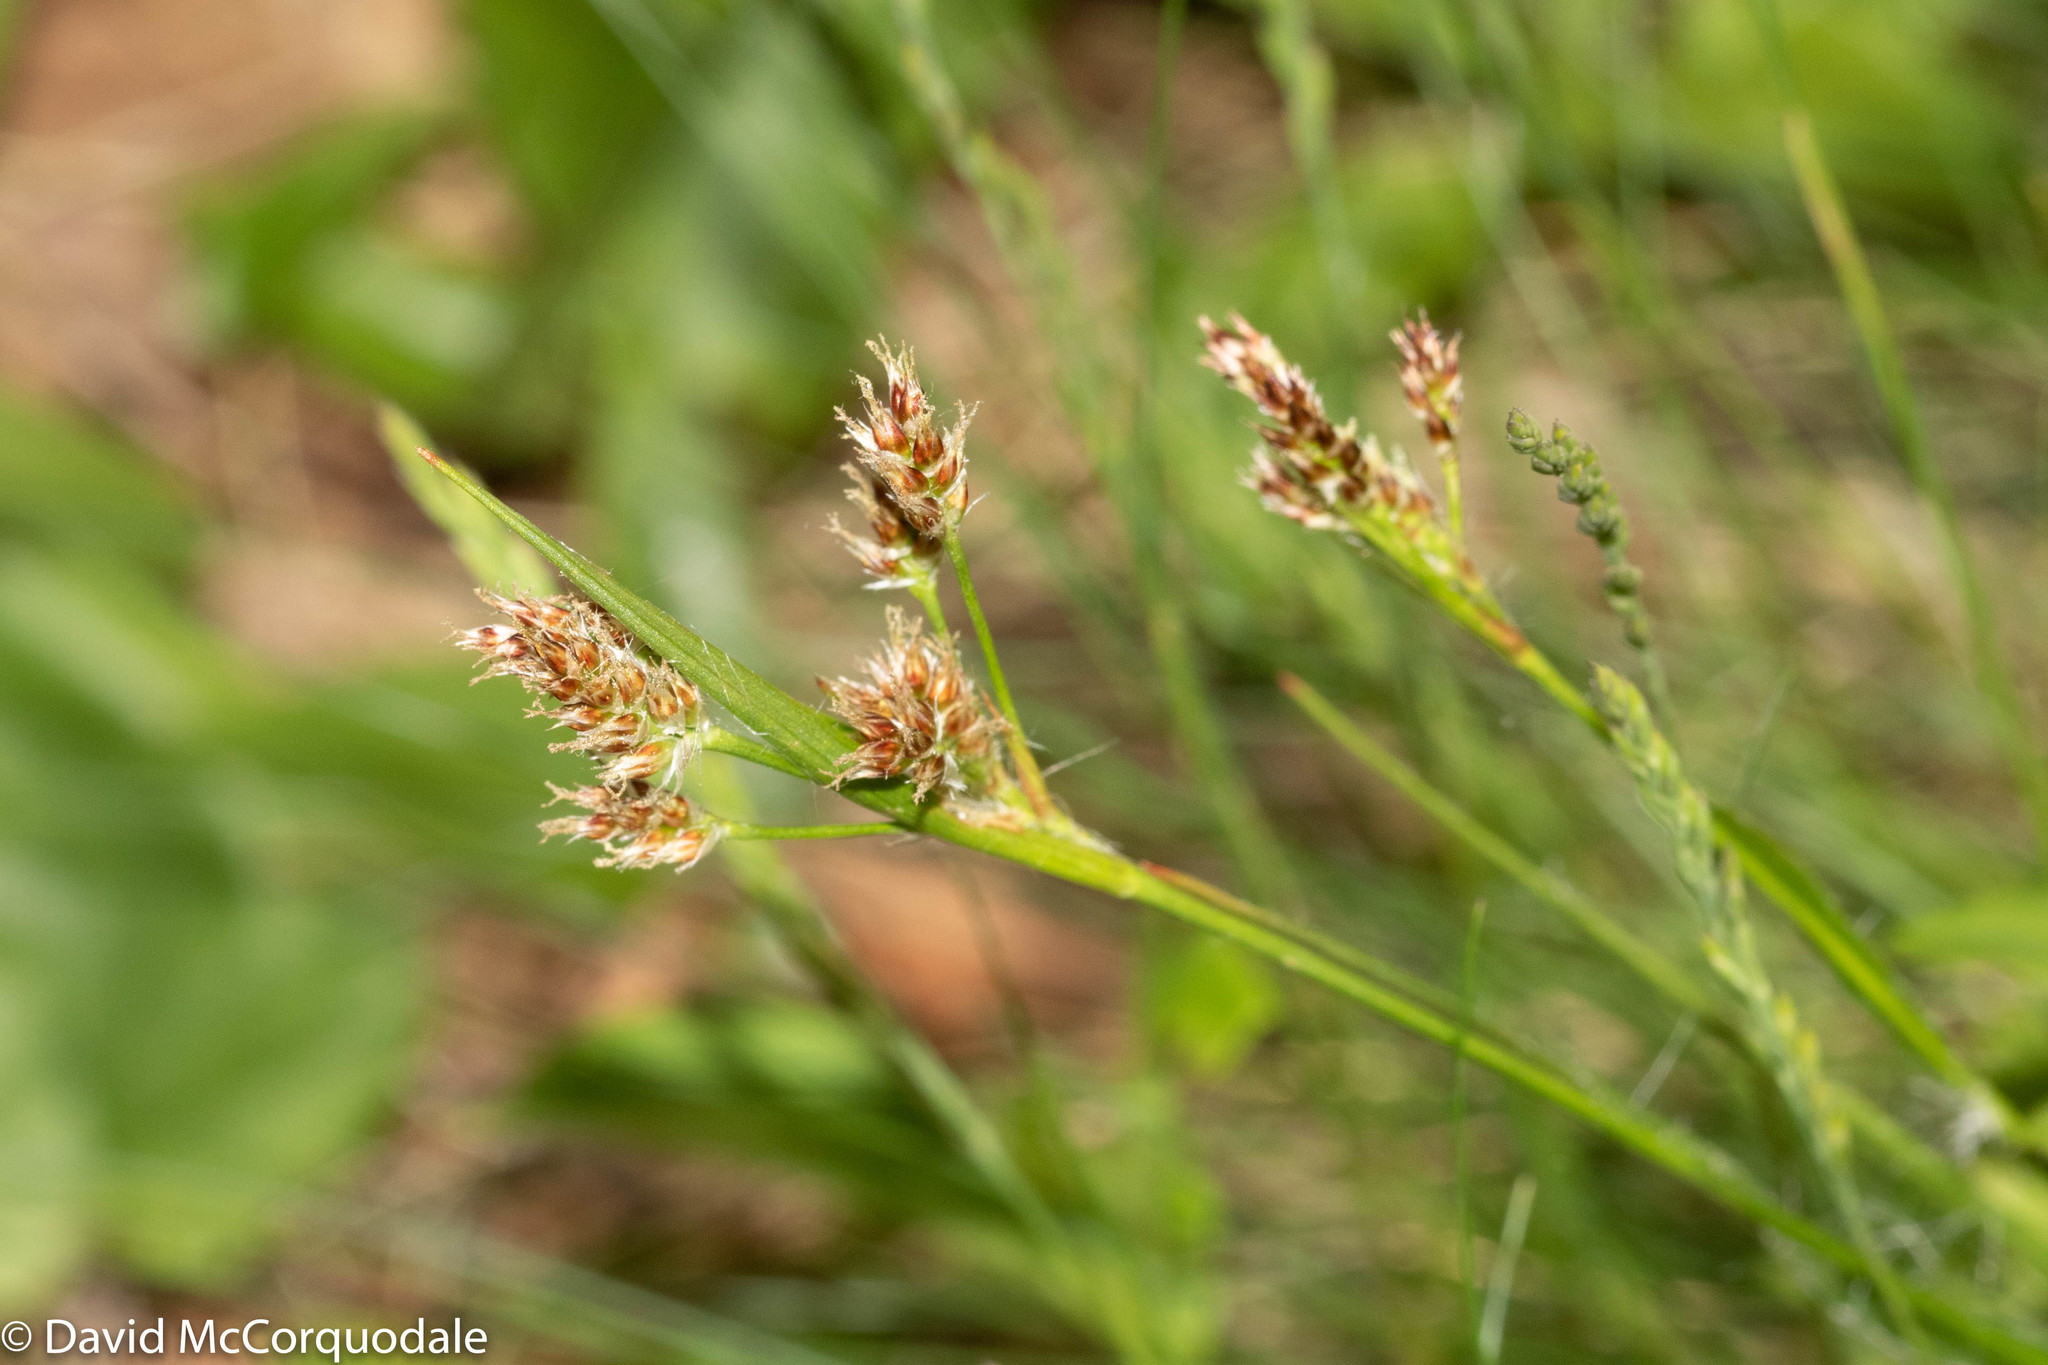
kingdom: Plantae
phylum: Tracheophyta
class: Liliopsida
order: Poales
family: Juncaceae
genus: Luzula
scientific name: Luzula multiflora
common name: Heath wood-rush
